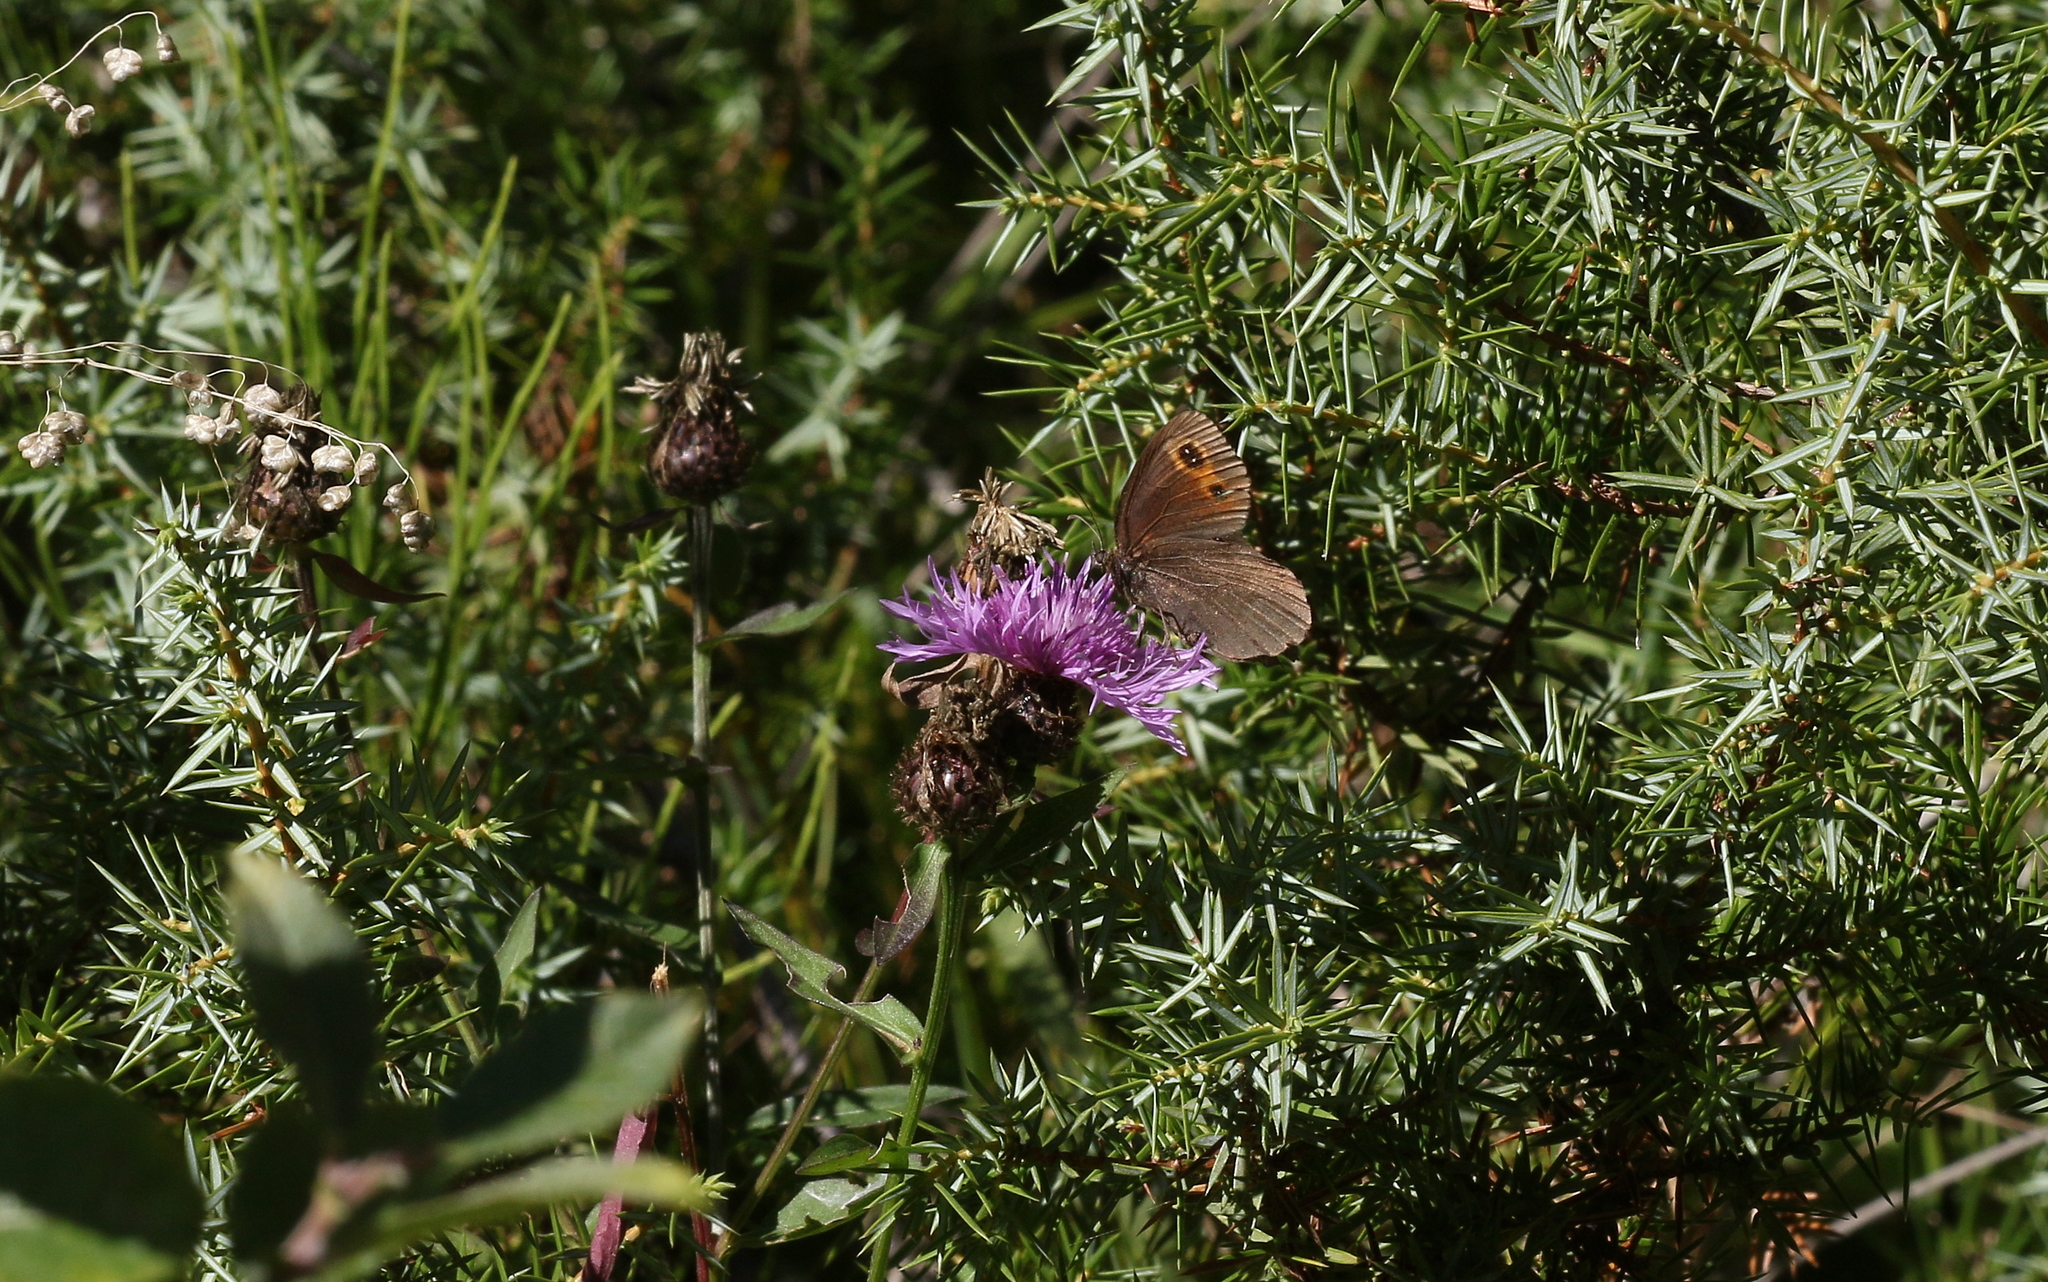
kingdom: Animalia
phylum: Arthropoda
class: Insecta
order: Lepidoptera
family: Nymphalidae
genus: Erebia
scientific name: Erebia aethiops
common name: Scotch argus
